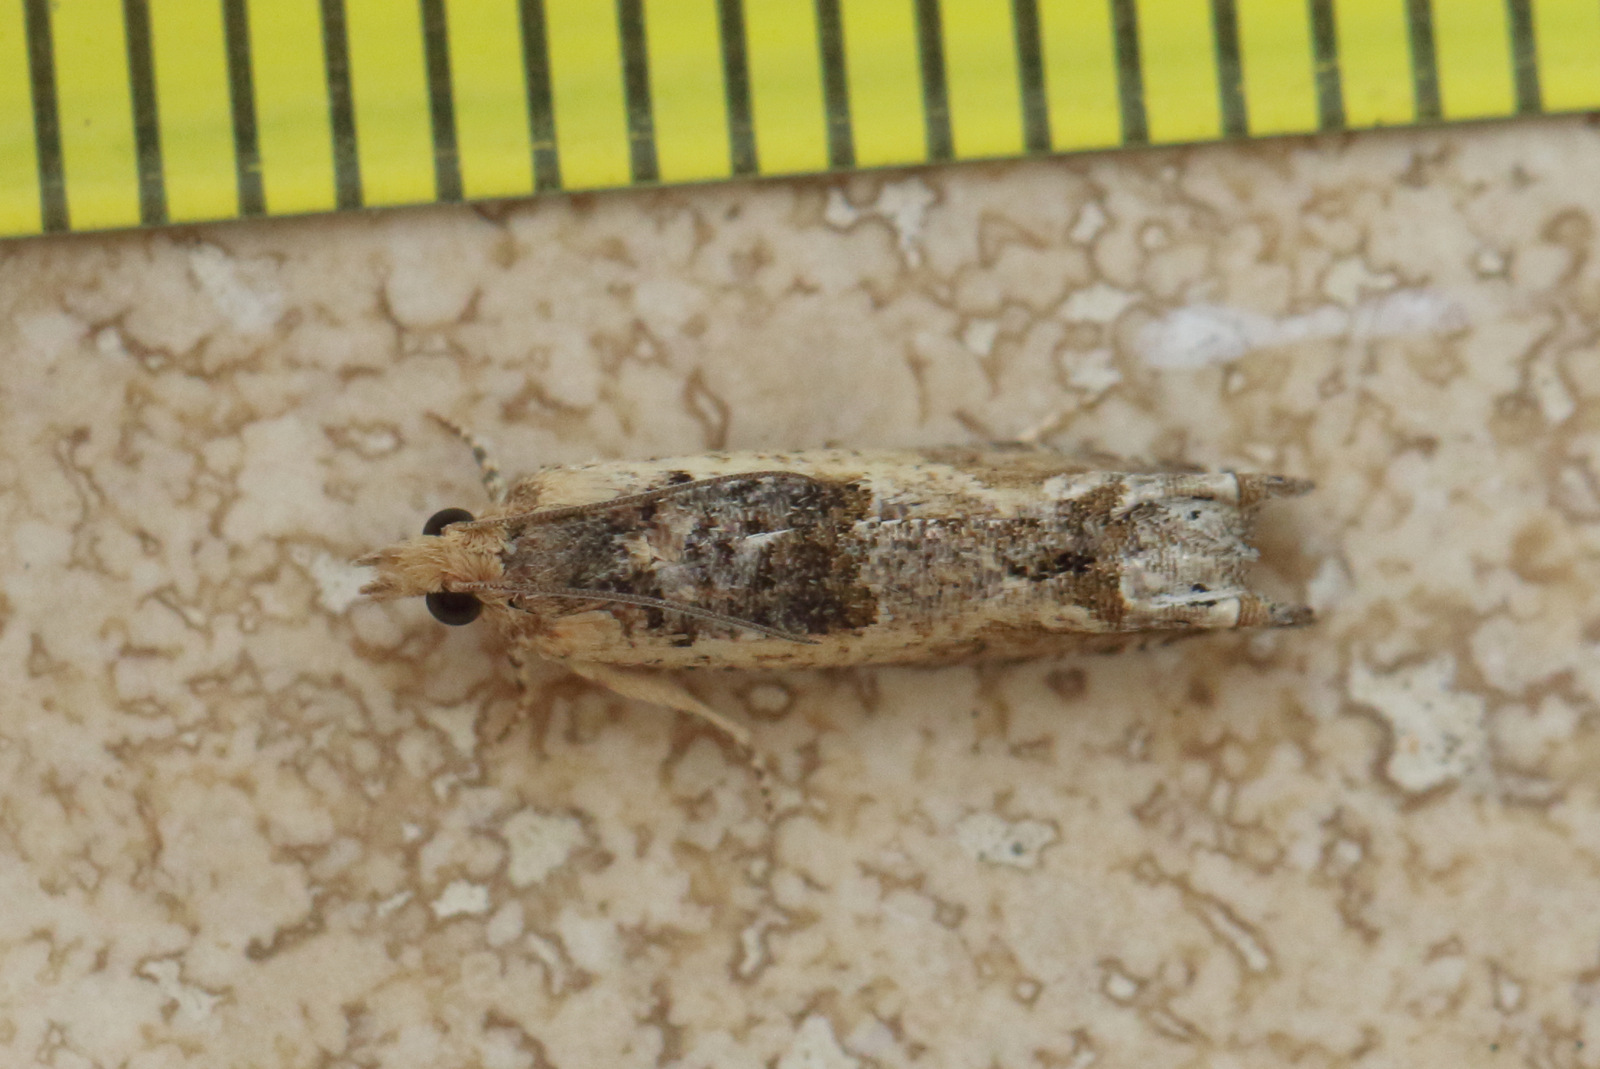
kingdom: Animalia
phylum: Arthropoda
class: Insecta
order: Lepidoptera
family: Tortricidae
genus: Crocidosema
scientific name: Crocidosema plebejana
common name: Southern bell
